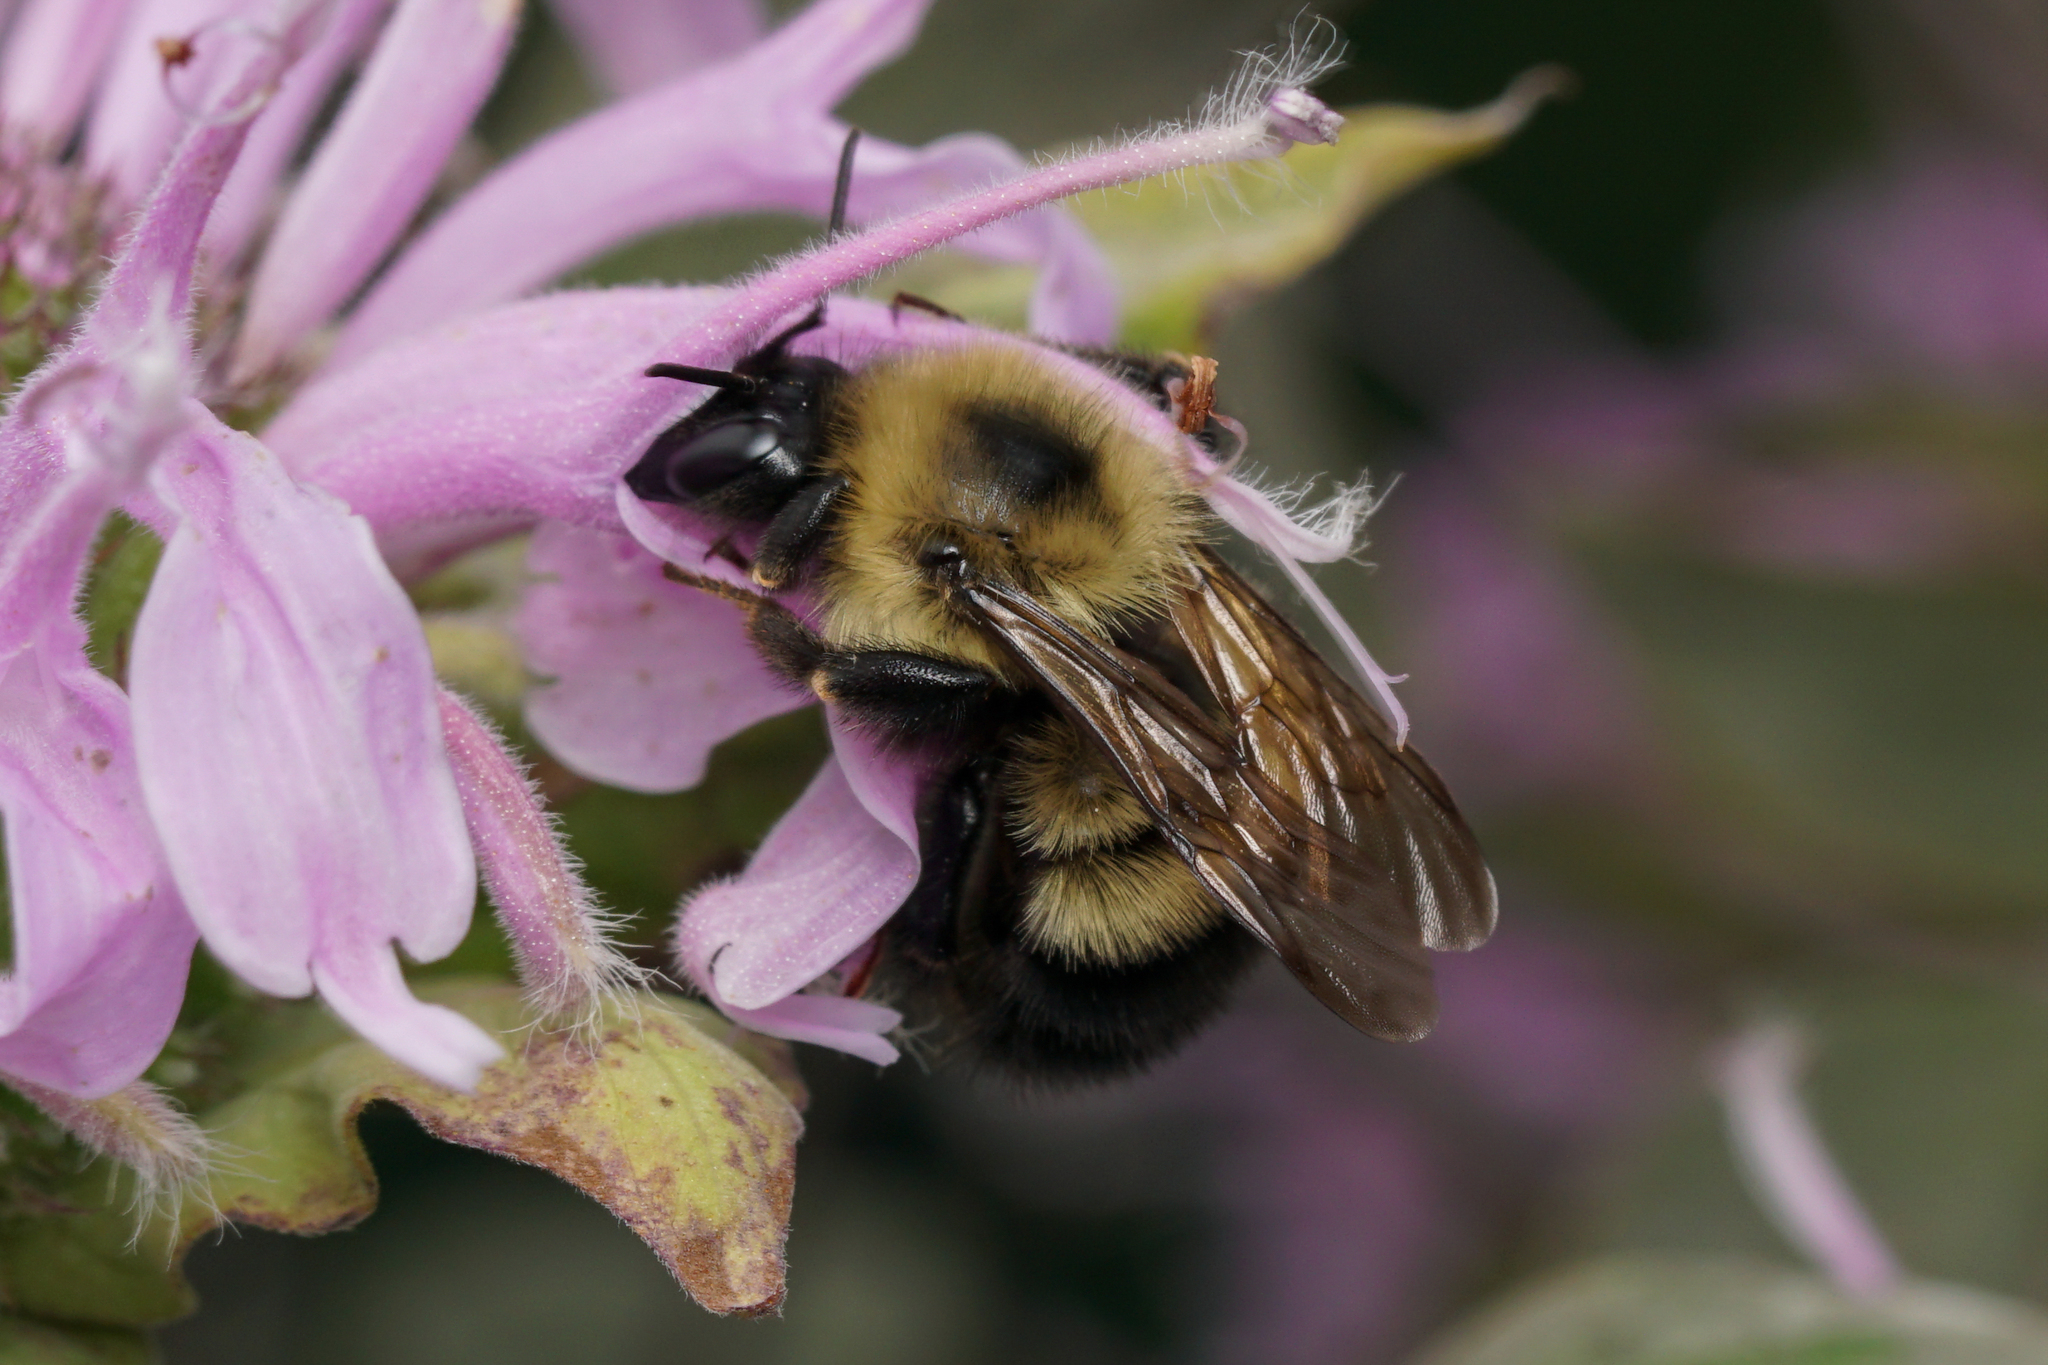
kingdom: Animalia
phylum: Arthropoda
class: Insecta
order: Hymenoptera
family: Apidae
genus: Bombus
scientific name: Bombus vagans
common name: Half-black bumble bee
